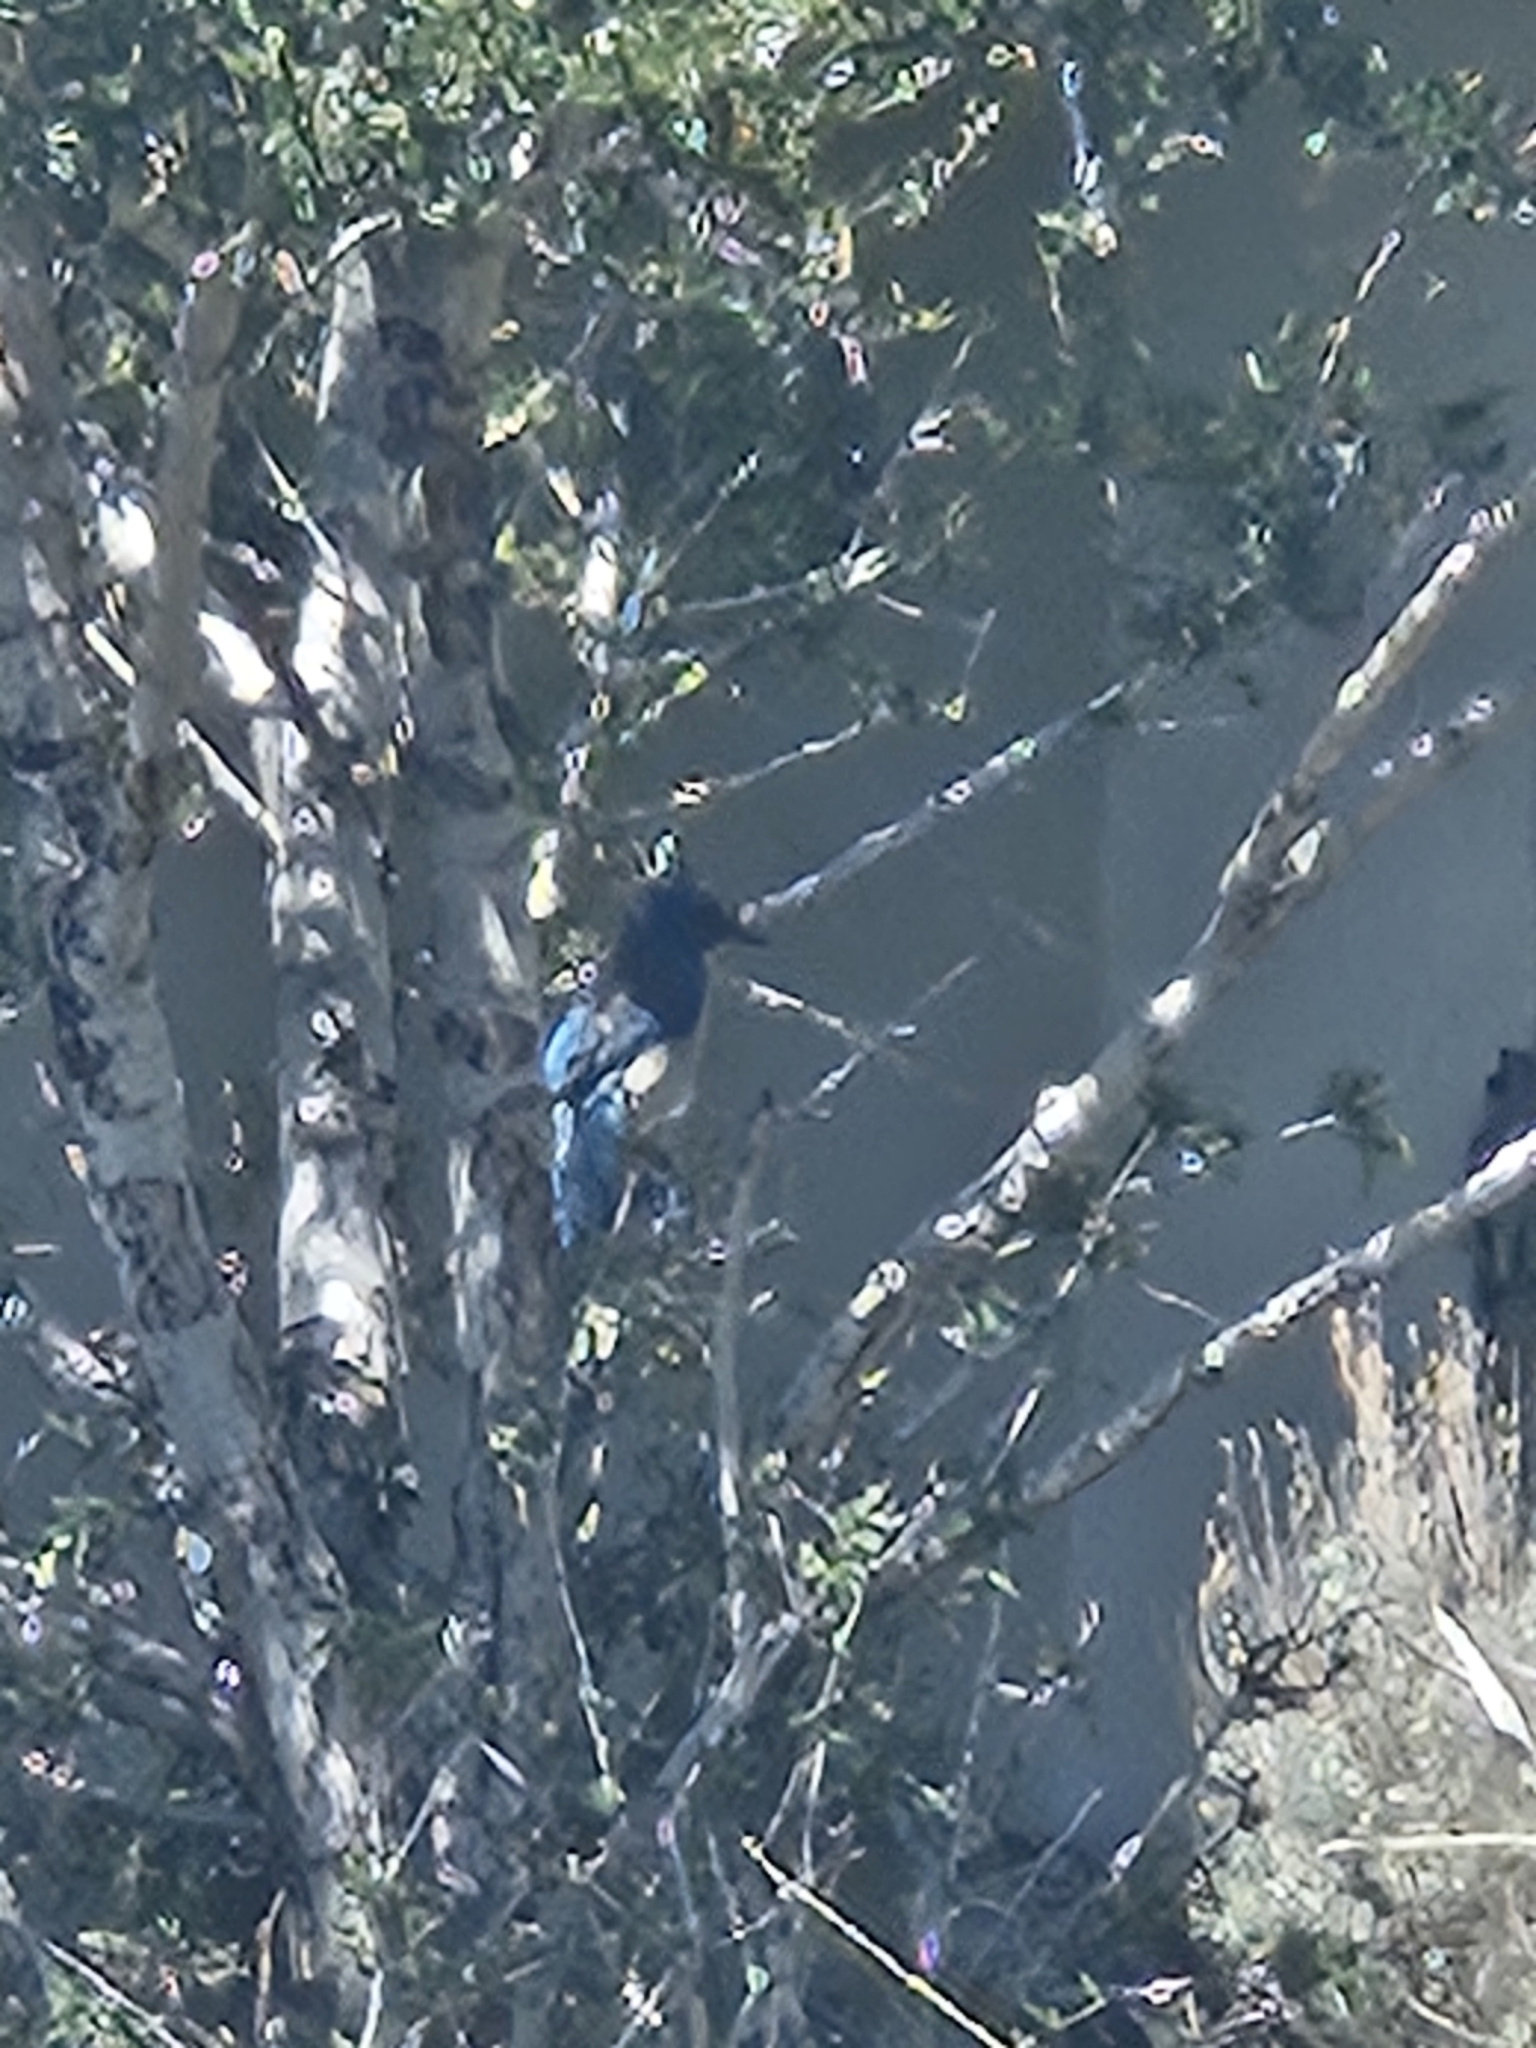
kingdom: Animalia
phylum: Chordata
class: Aves
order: Passeriformes
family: Corvidae
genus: Aphelocoma
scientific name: Aphelocoma woodhouseii
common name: Woodhouse's scrub-jay
